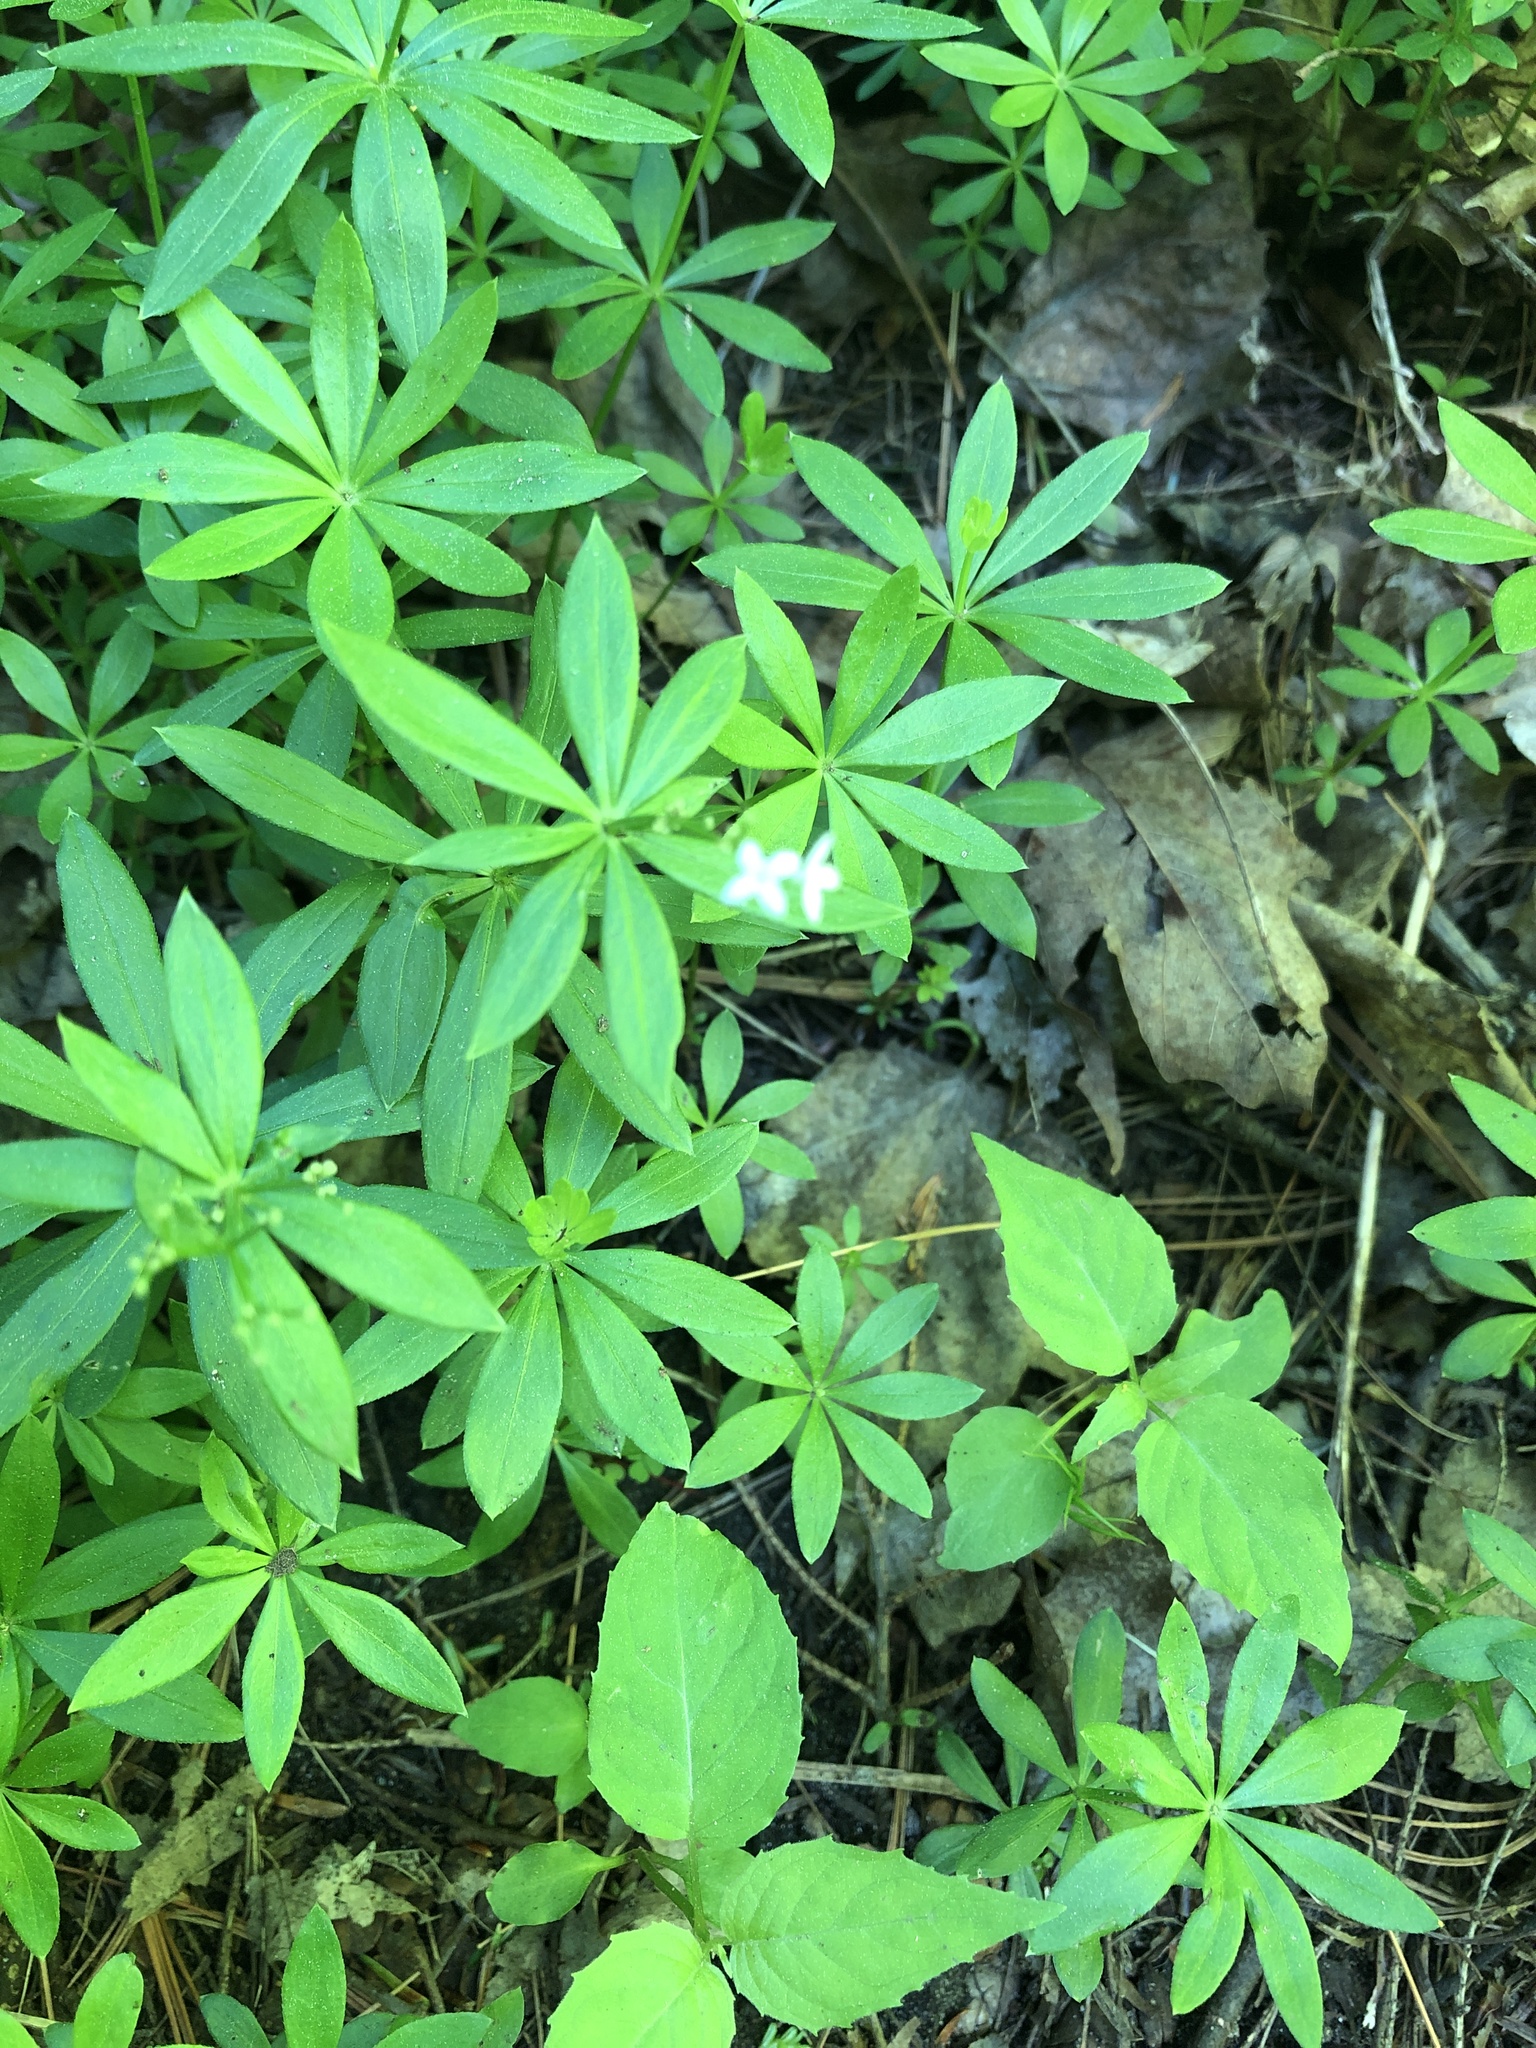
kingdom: Plantae
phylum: Tracheophyta
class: Magnoliopsida
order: Gentianales
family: Rubiaceae
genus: Galium
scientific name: Galium odoratum
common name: Sweet woodruff
